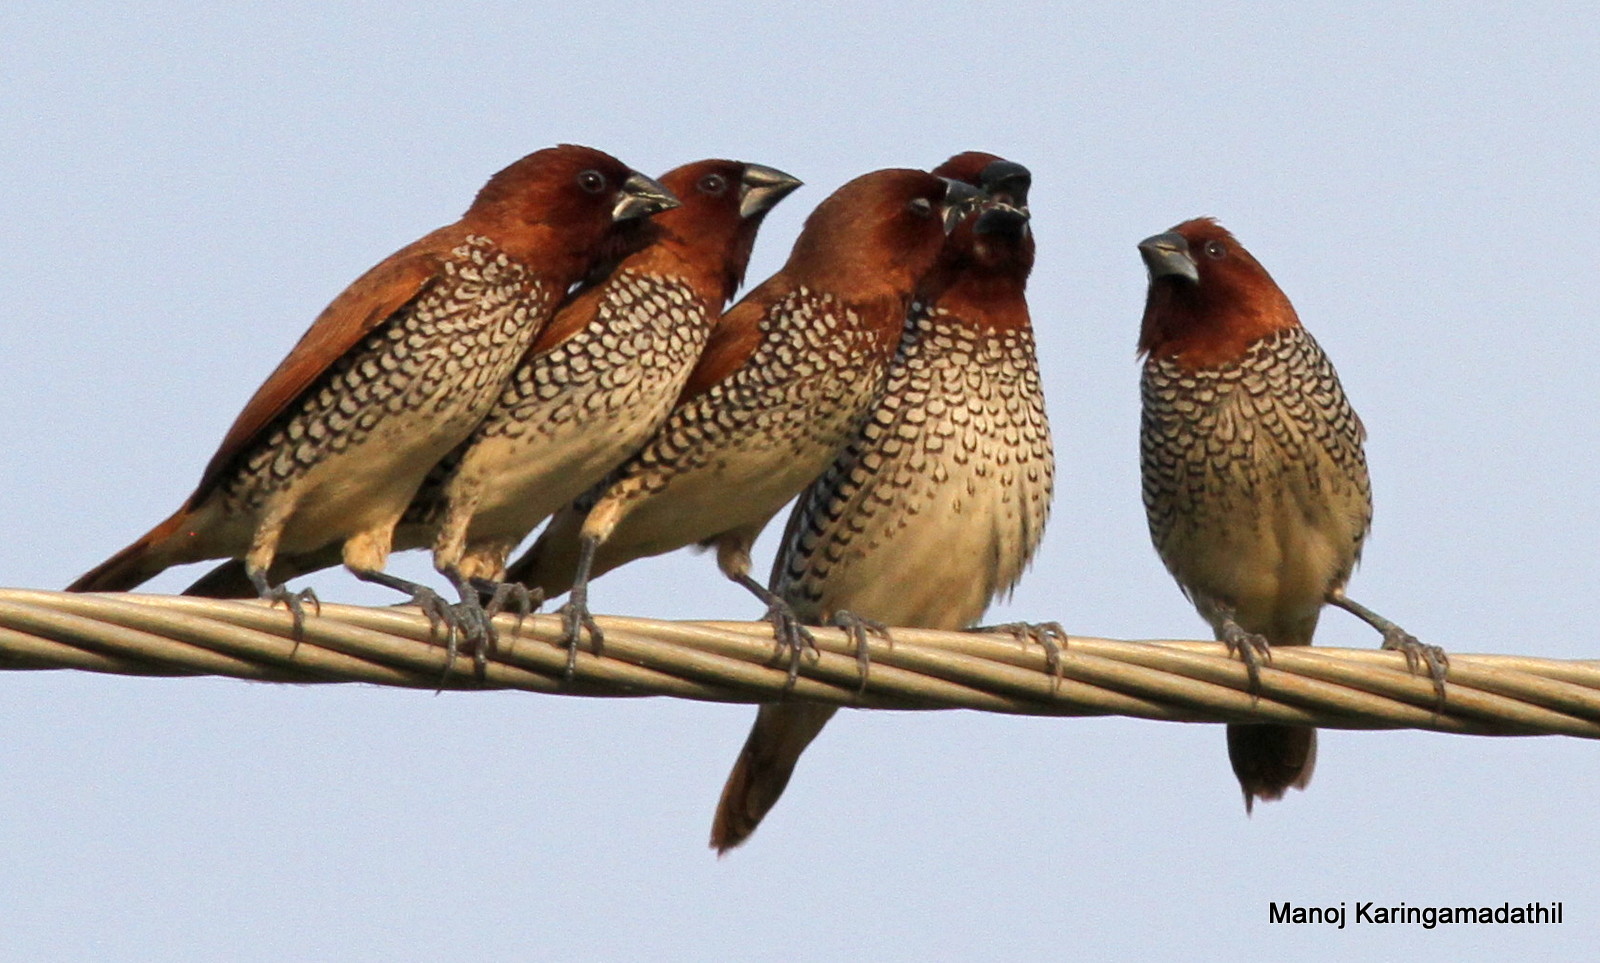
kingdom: Animalia
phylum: Chordata
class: Aves
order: Passeriformes
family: Estrildidae
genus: Lonchura
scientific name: Lonchura punctulata
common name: Scaly-breasted munia
